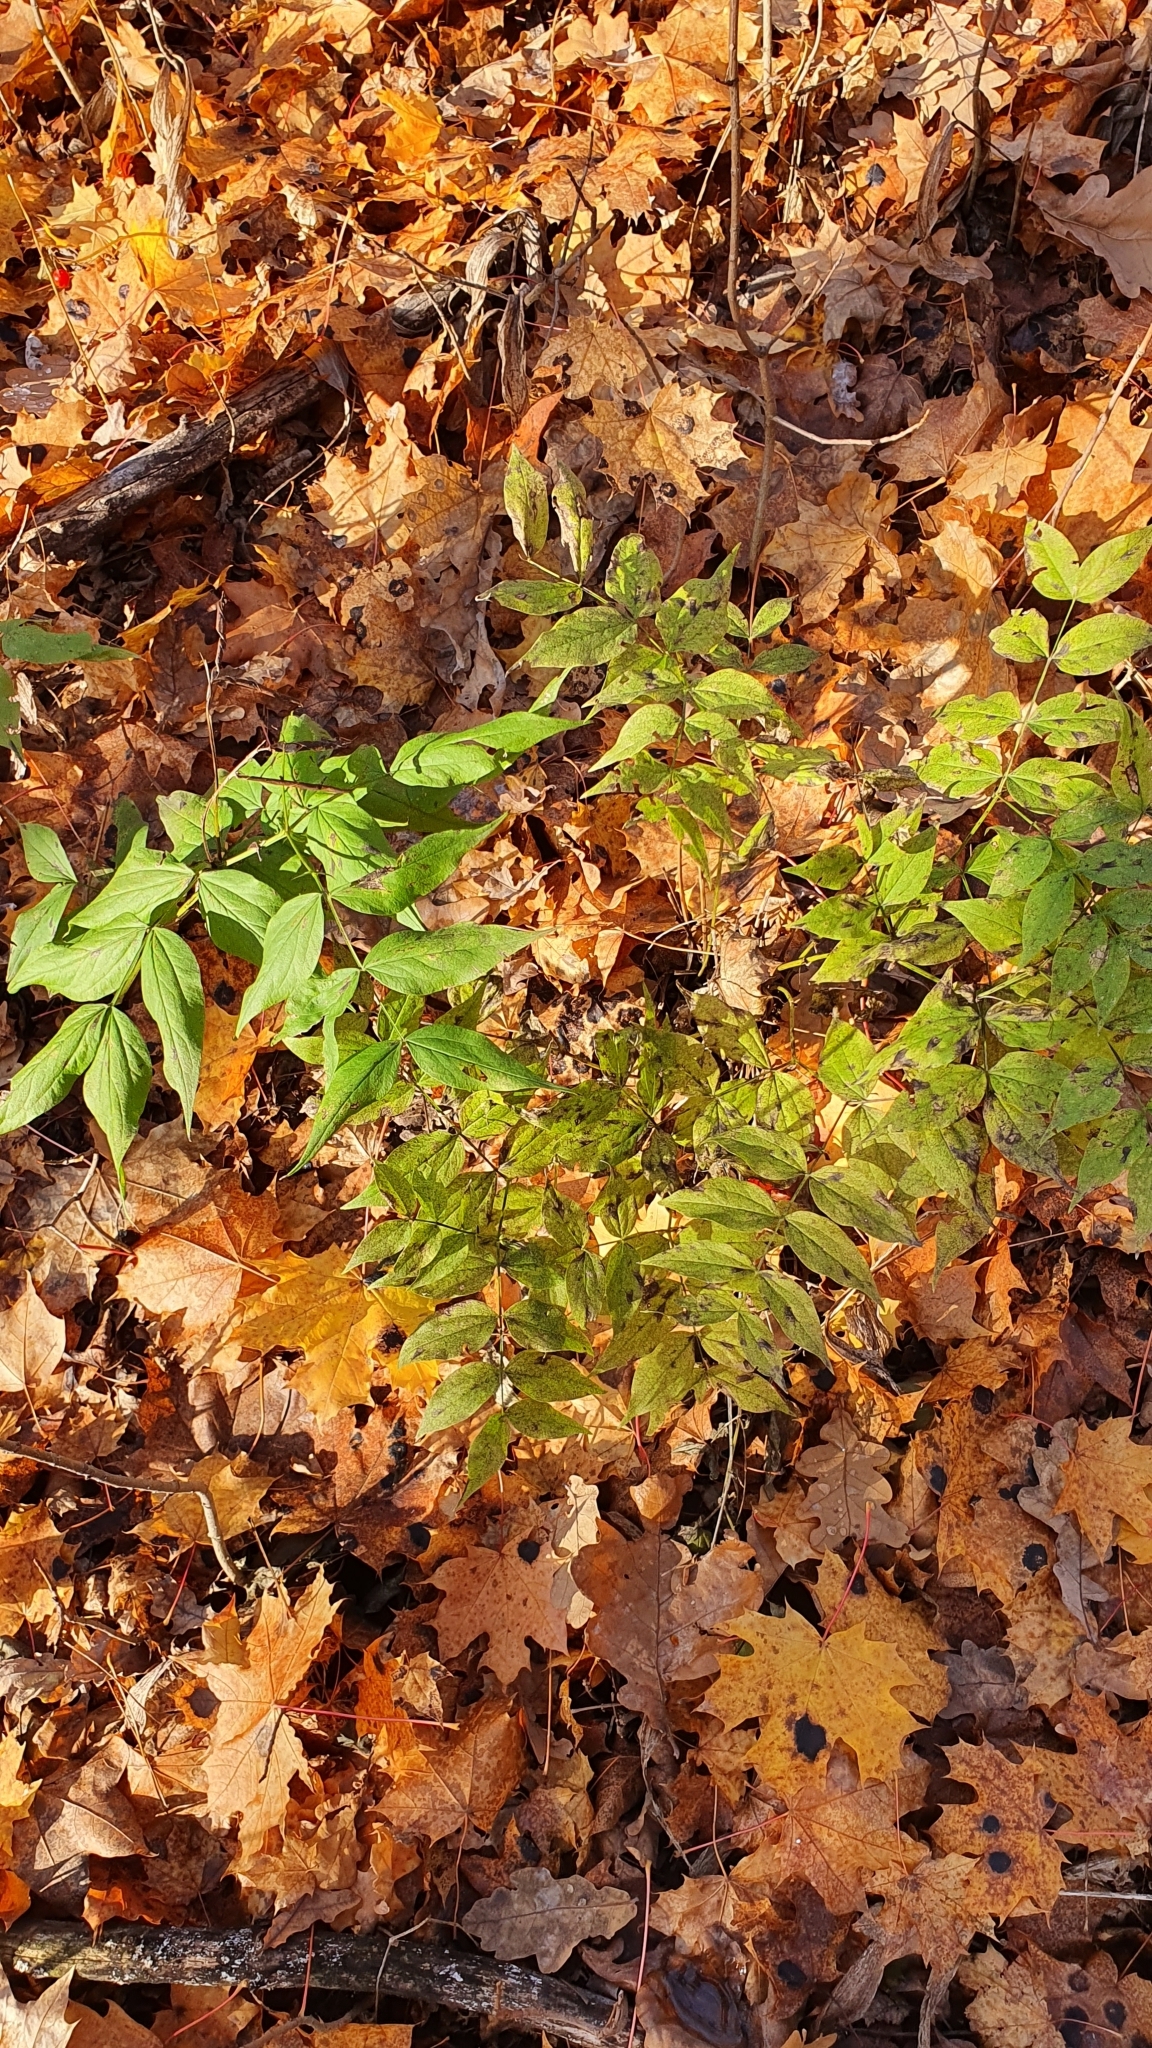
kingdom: Plantae
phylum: Tracheophyta
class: Magnoliopsida
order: Fabales
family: Fabaceae
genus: Lathyrus
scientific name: Lathyrus vernus
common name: Spring pea
